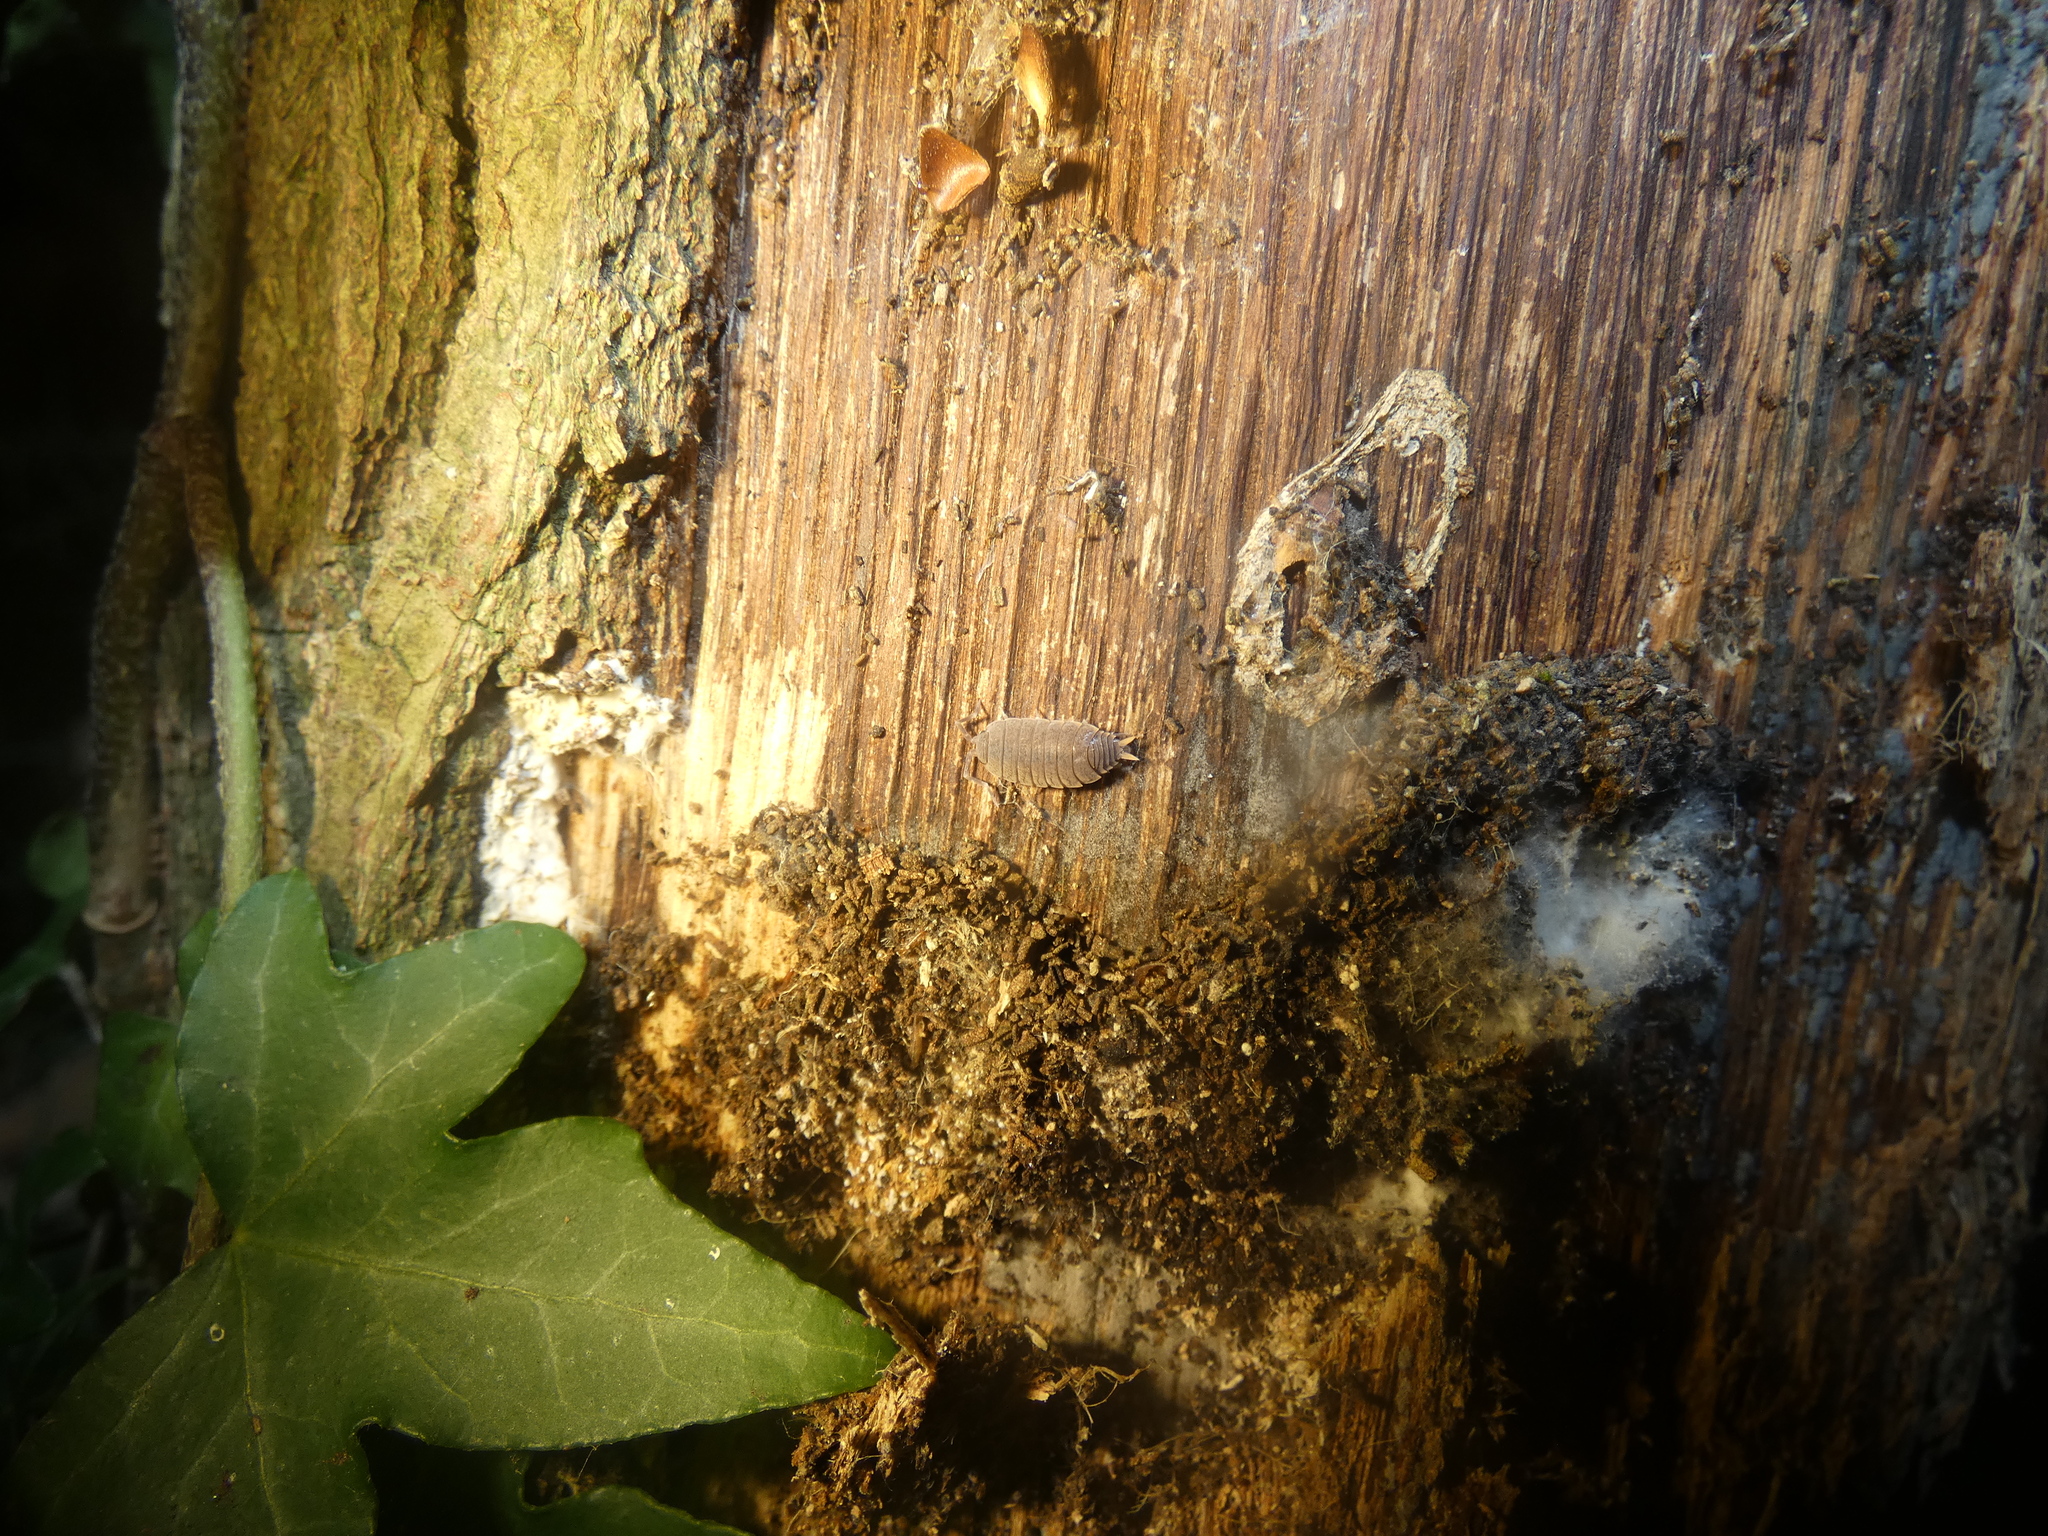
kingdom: Animalia
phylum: Arthropoda
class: Malacostraca
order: Isopoda
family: Porcellionidae
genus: Porcellionides
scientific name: Porcellionides pruinosus
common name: Plum woodlouse
